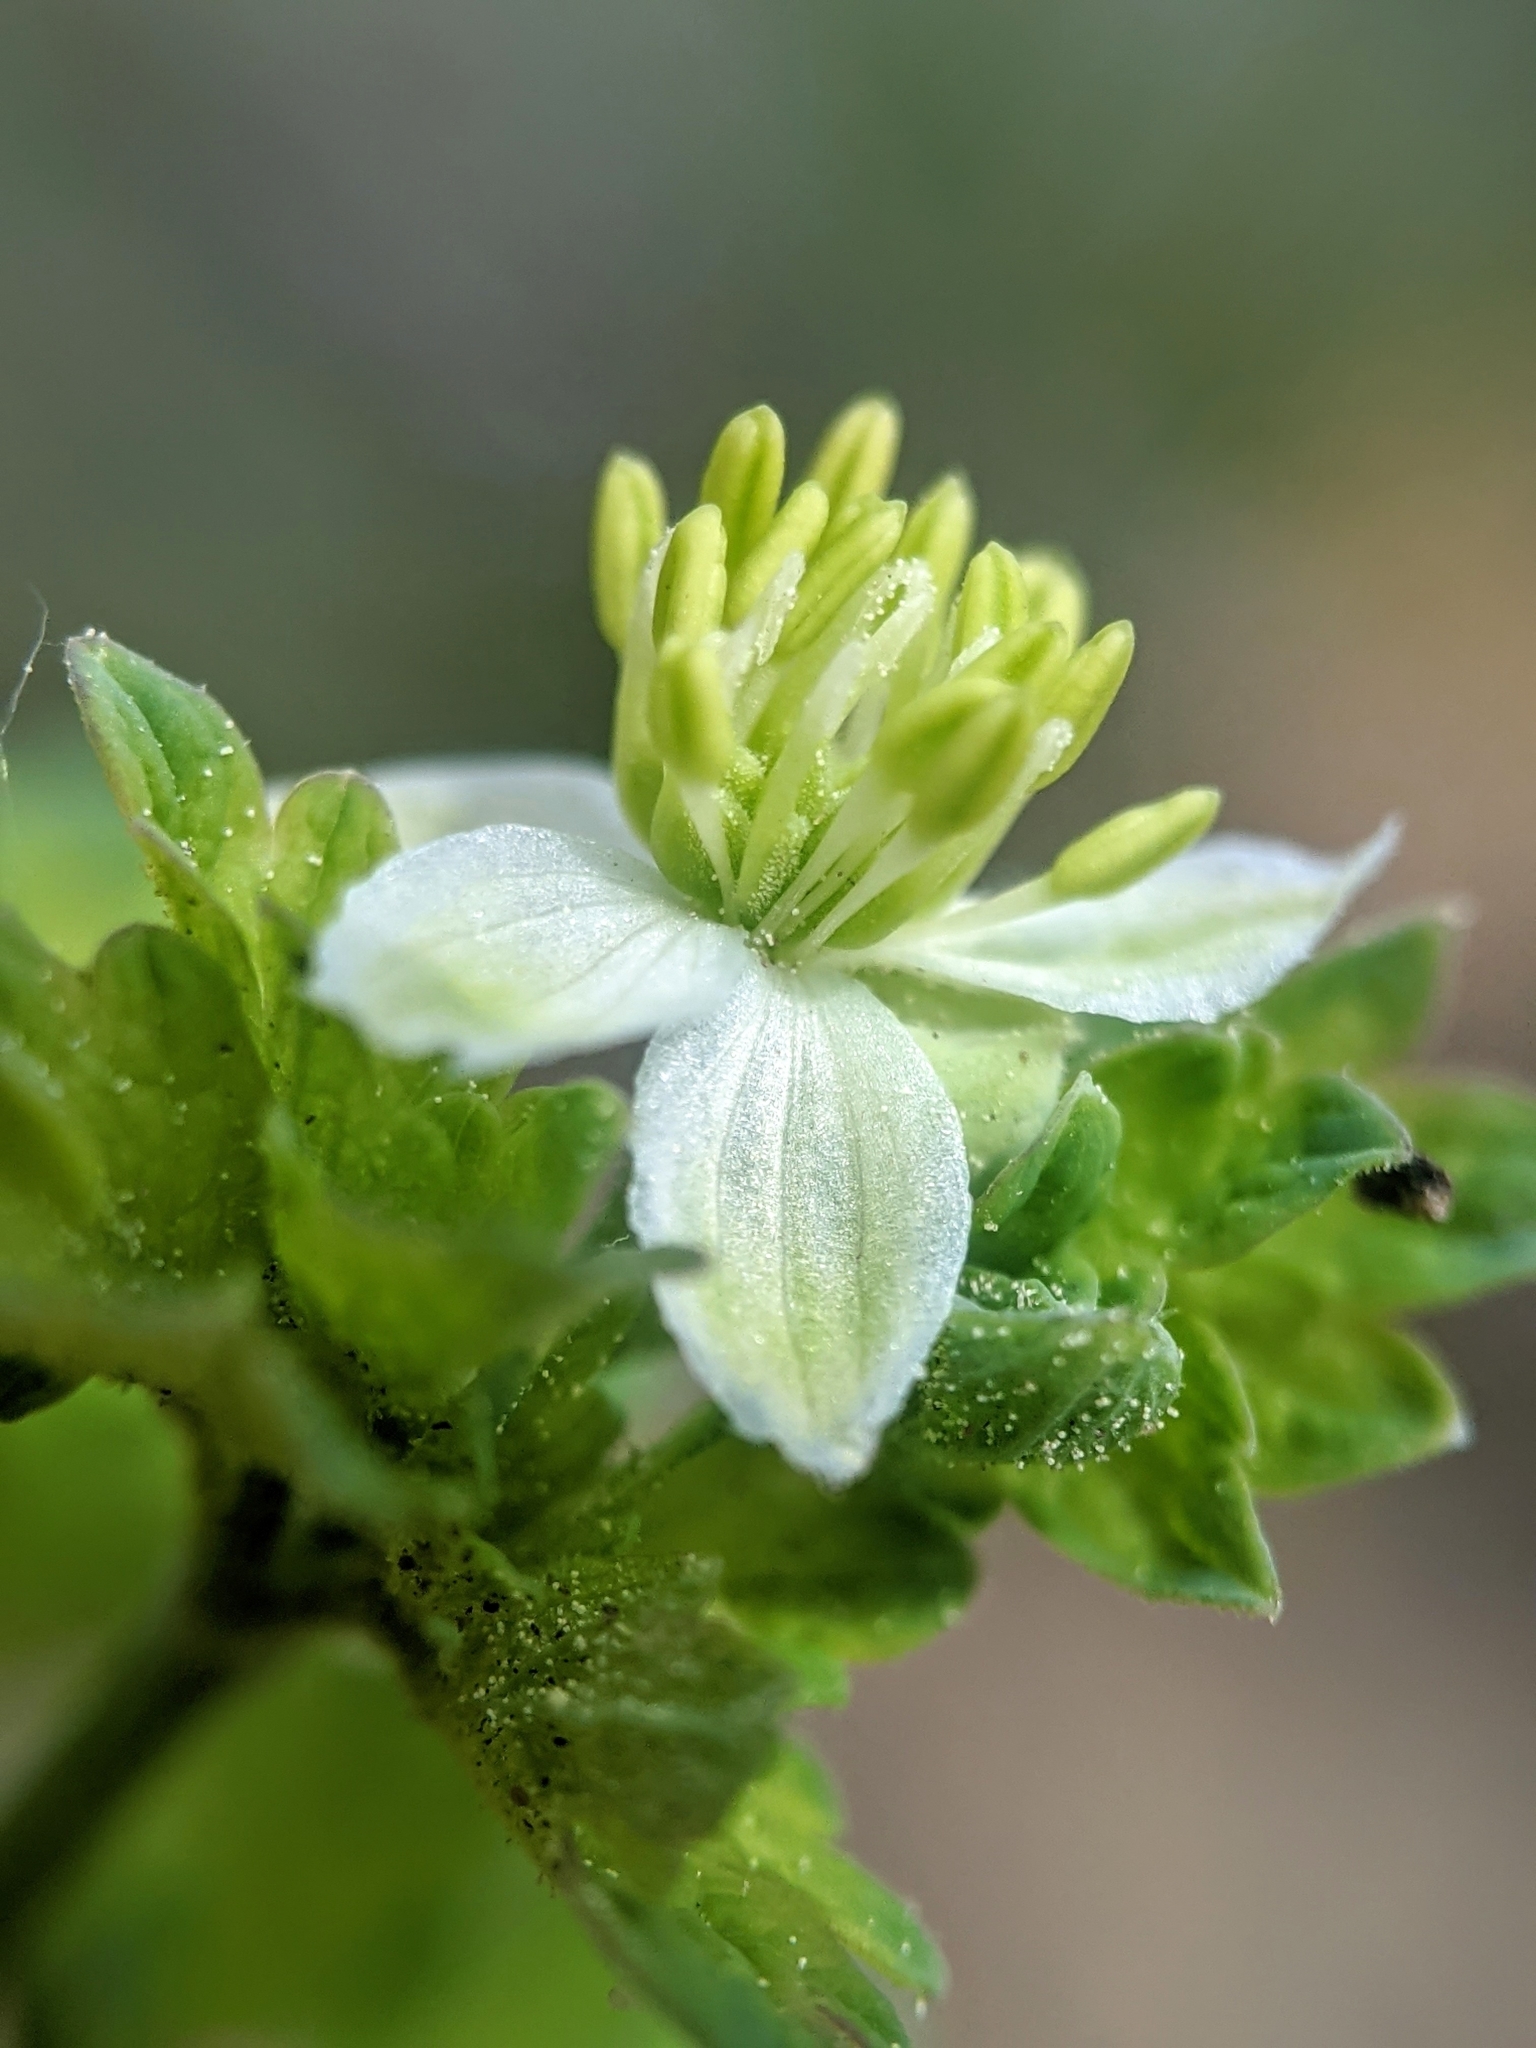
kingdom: Plantae
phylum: Tracheophyta
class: Magnoliopsida
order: Ranunculales
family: Ranunculaceae
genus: Thalictrum
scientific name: Thalictrum sparsiflorum
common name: Mountain meadow-rue
